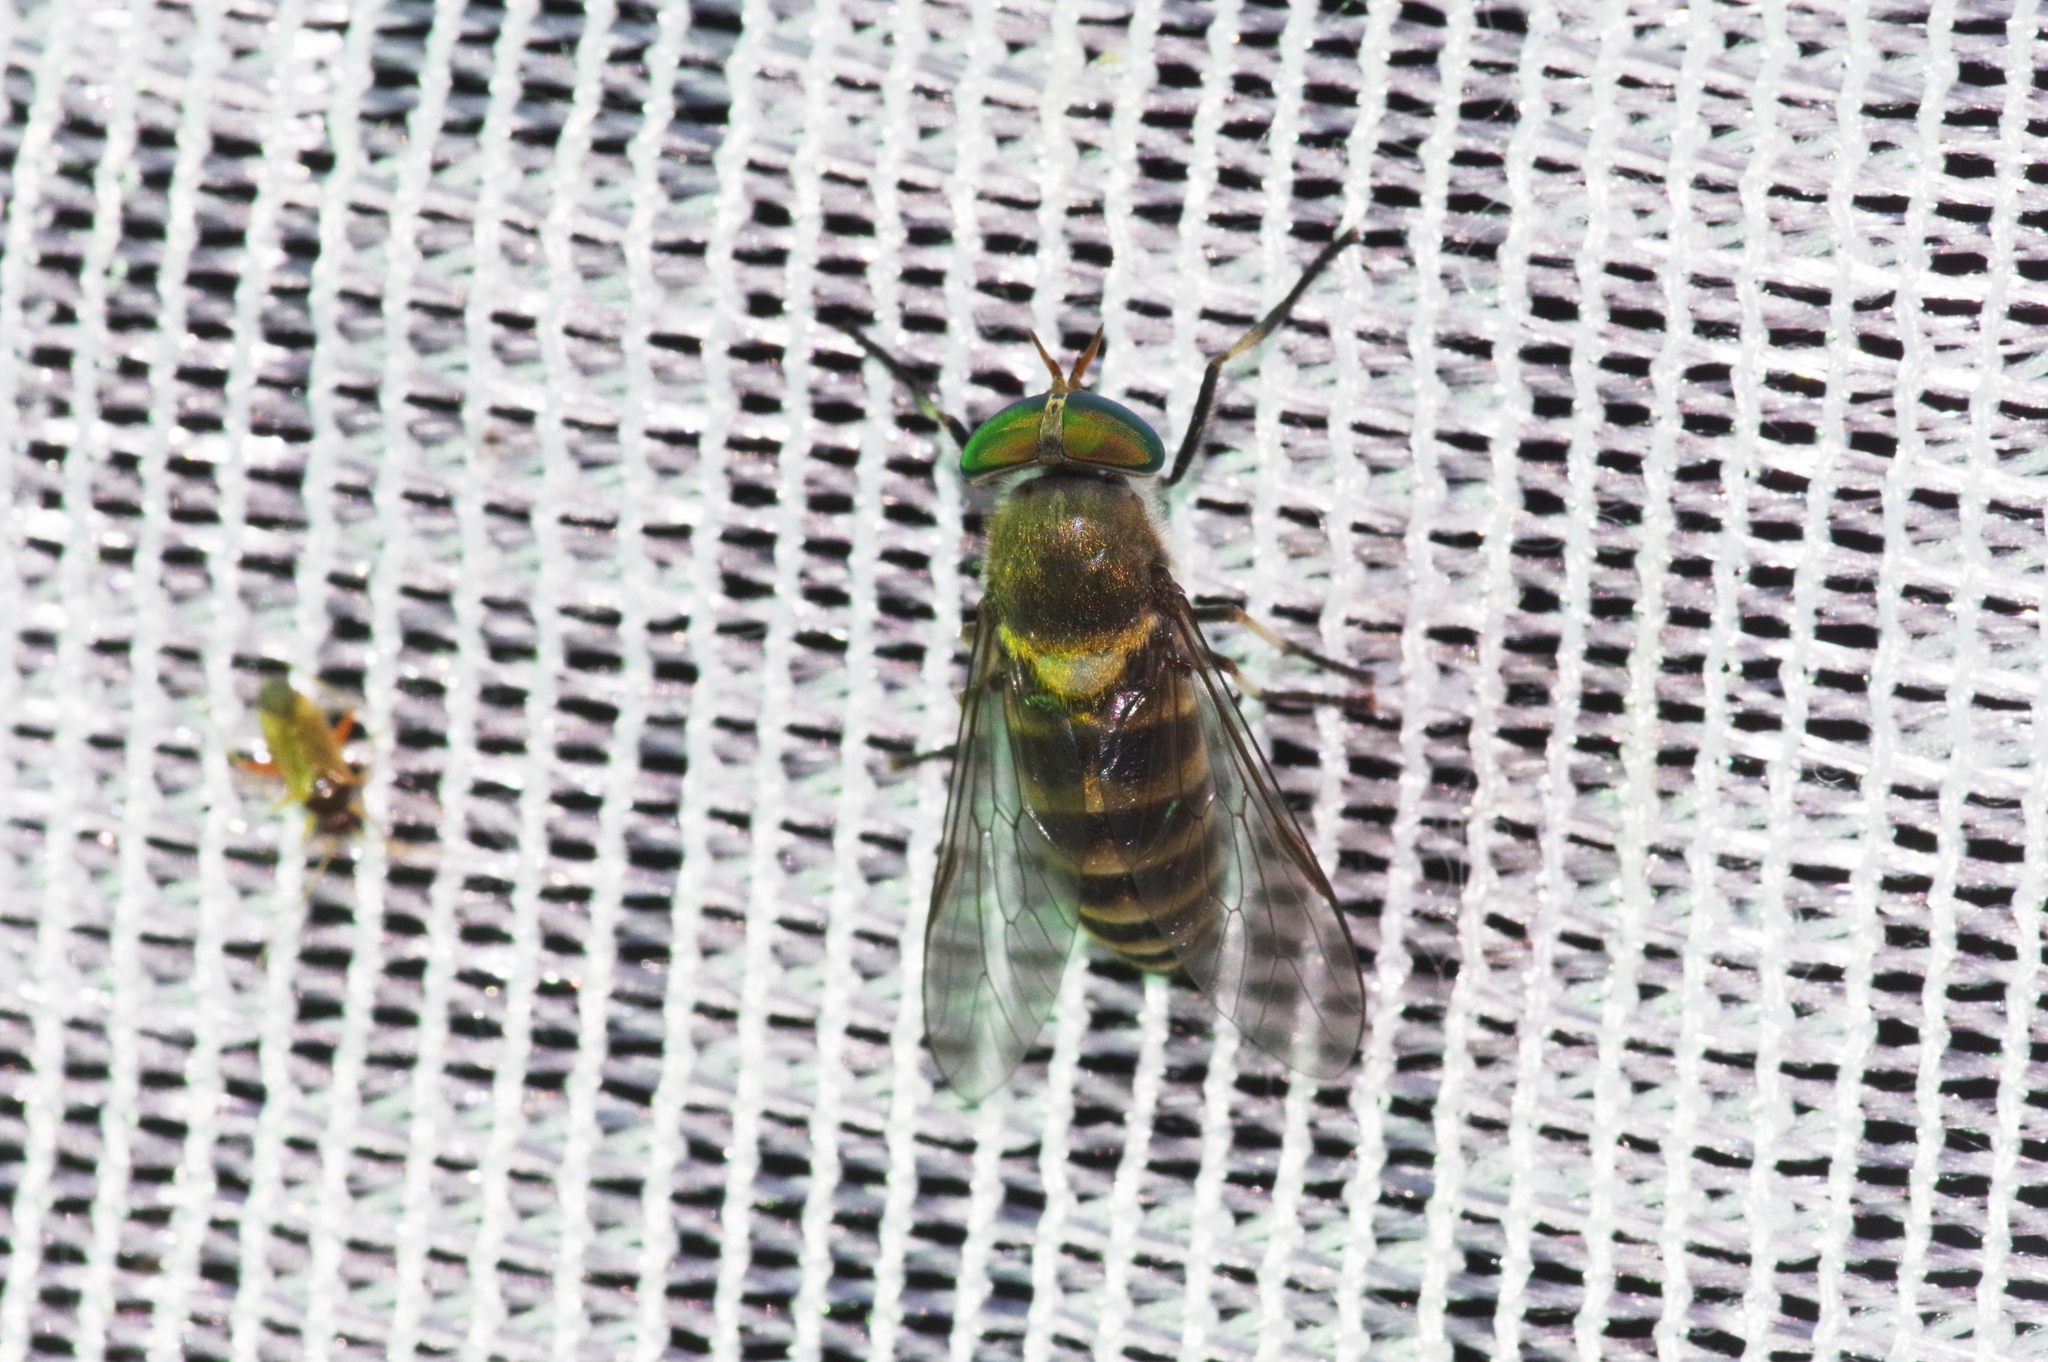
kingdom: Animalia
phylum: Arthropoda
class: Insecta
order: Diptera
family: Tabanidae
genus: Tabanus
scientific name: Tabanus iyoensis
